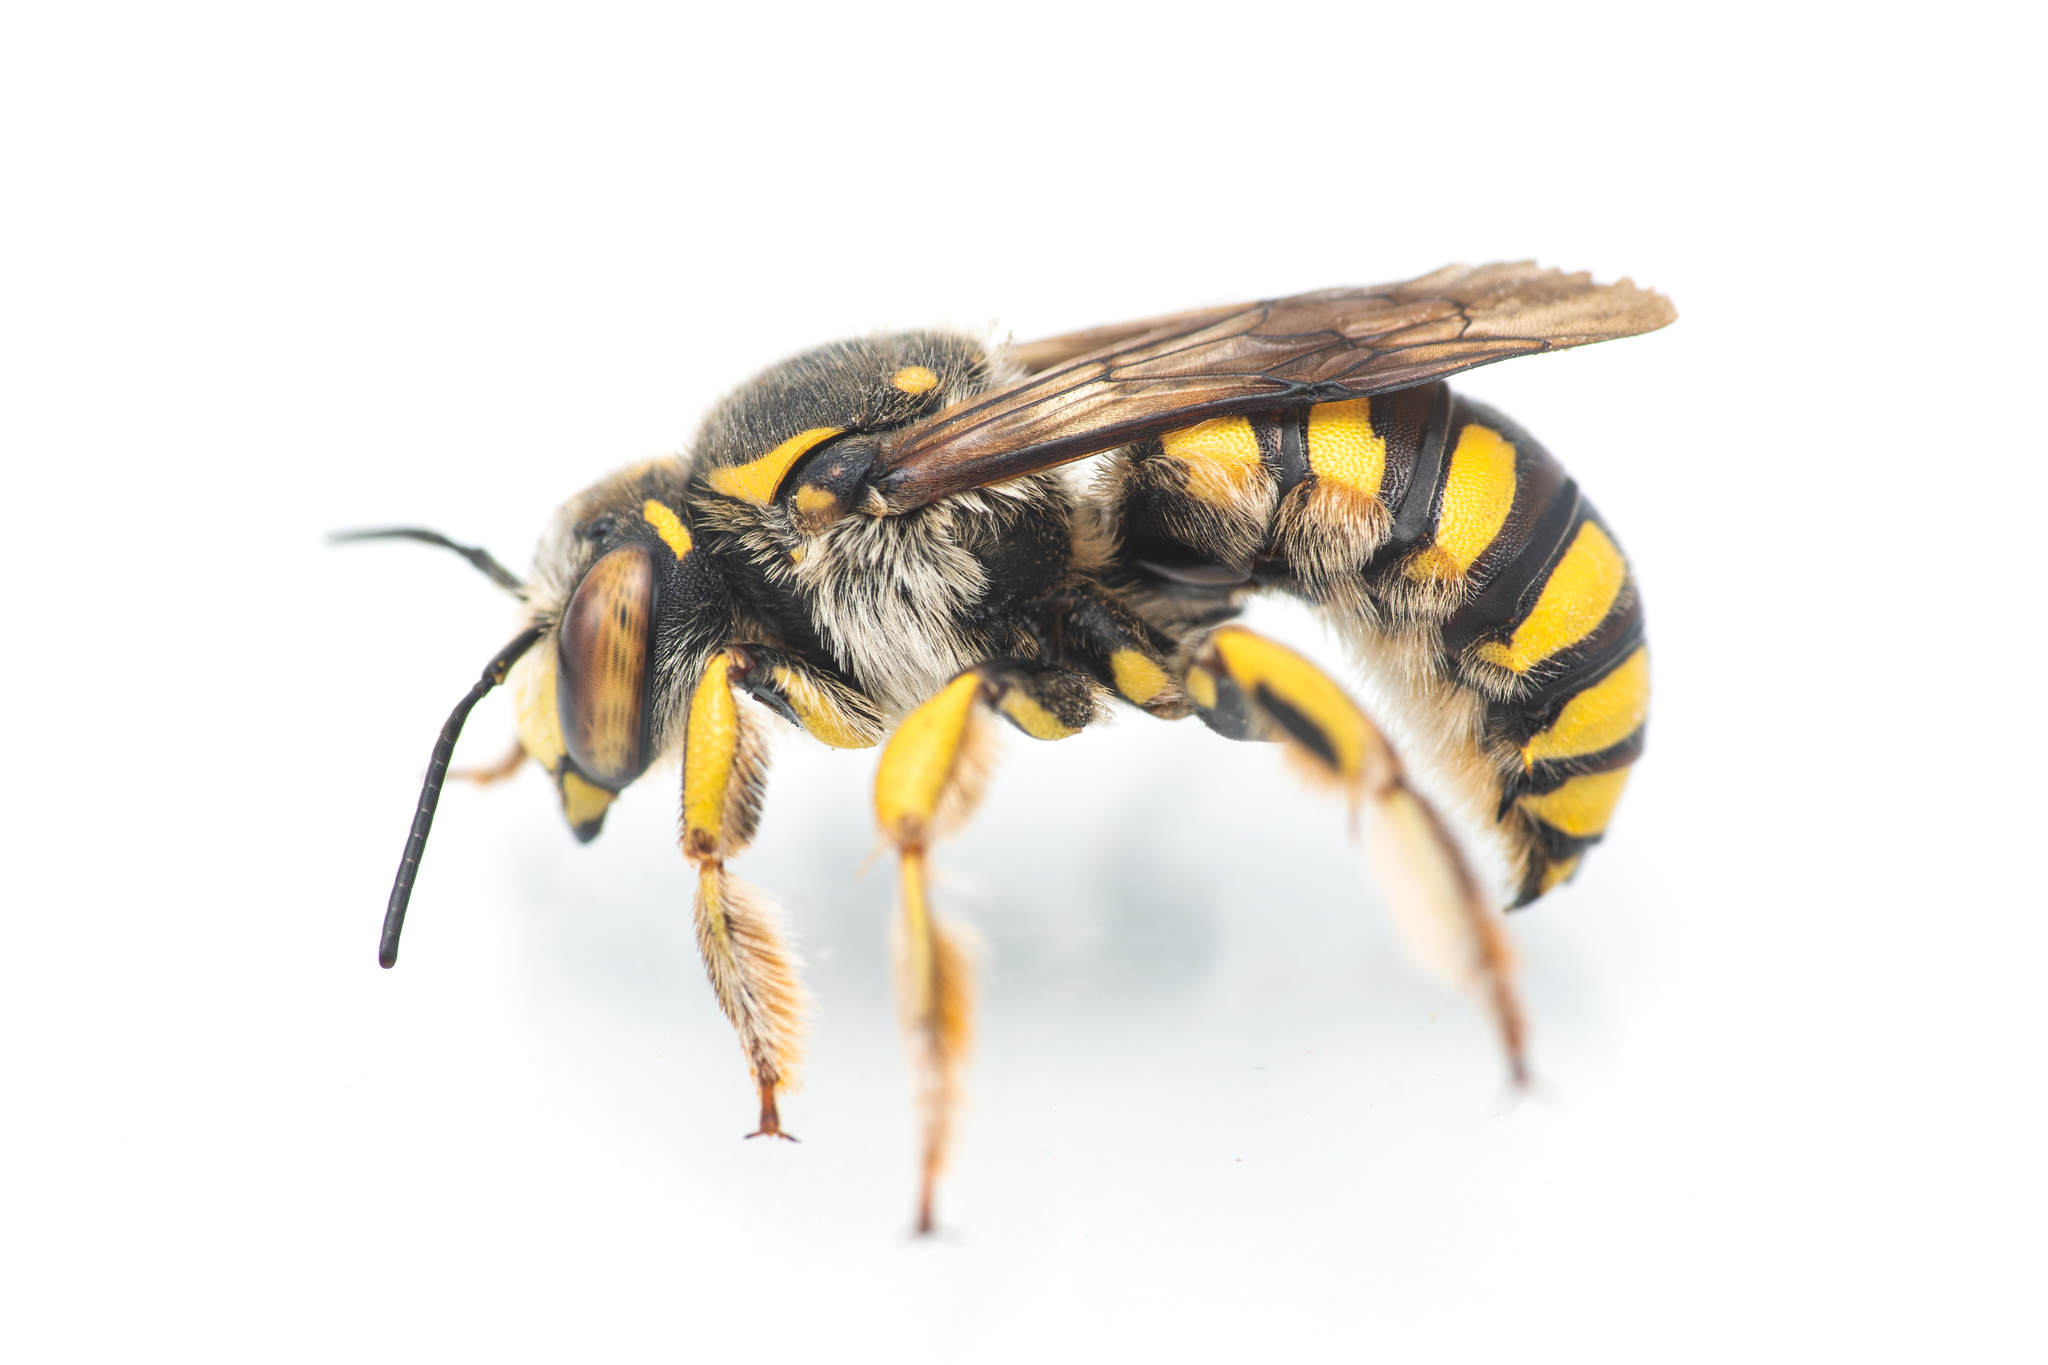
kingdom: Animalia
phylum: Arthropoda
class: Insecta
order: Hymenoptera
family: Megachilidae
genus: Anthidium
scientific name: Anthidium florentinum
